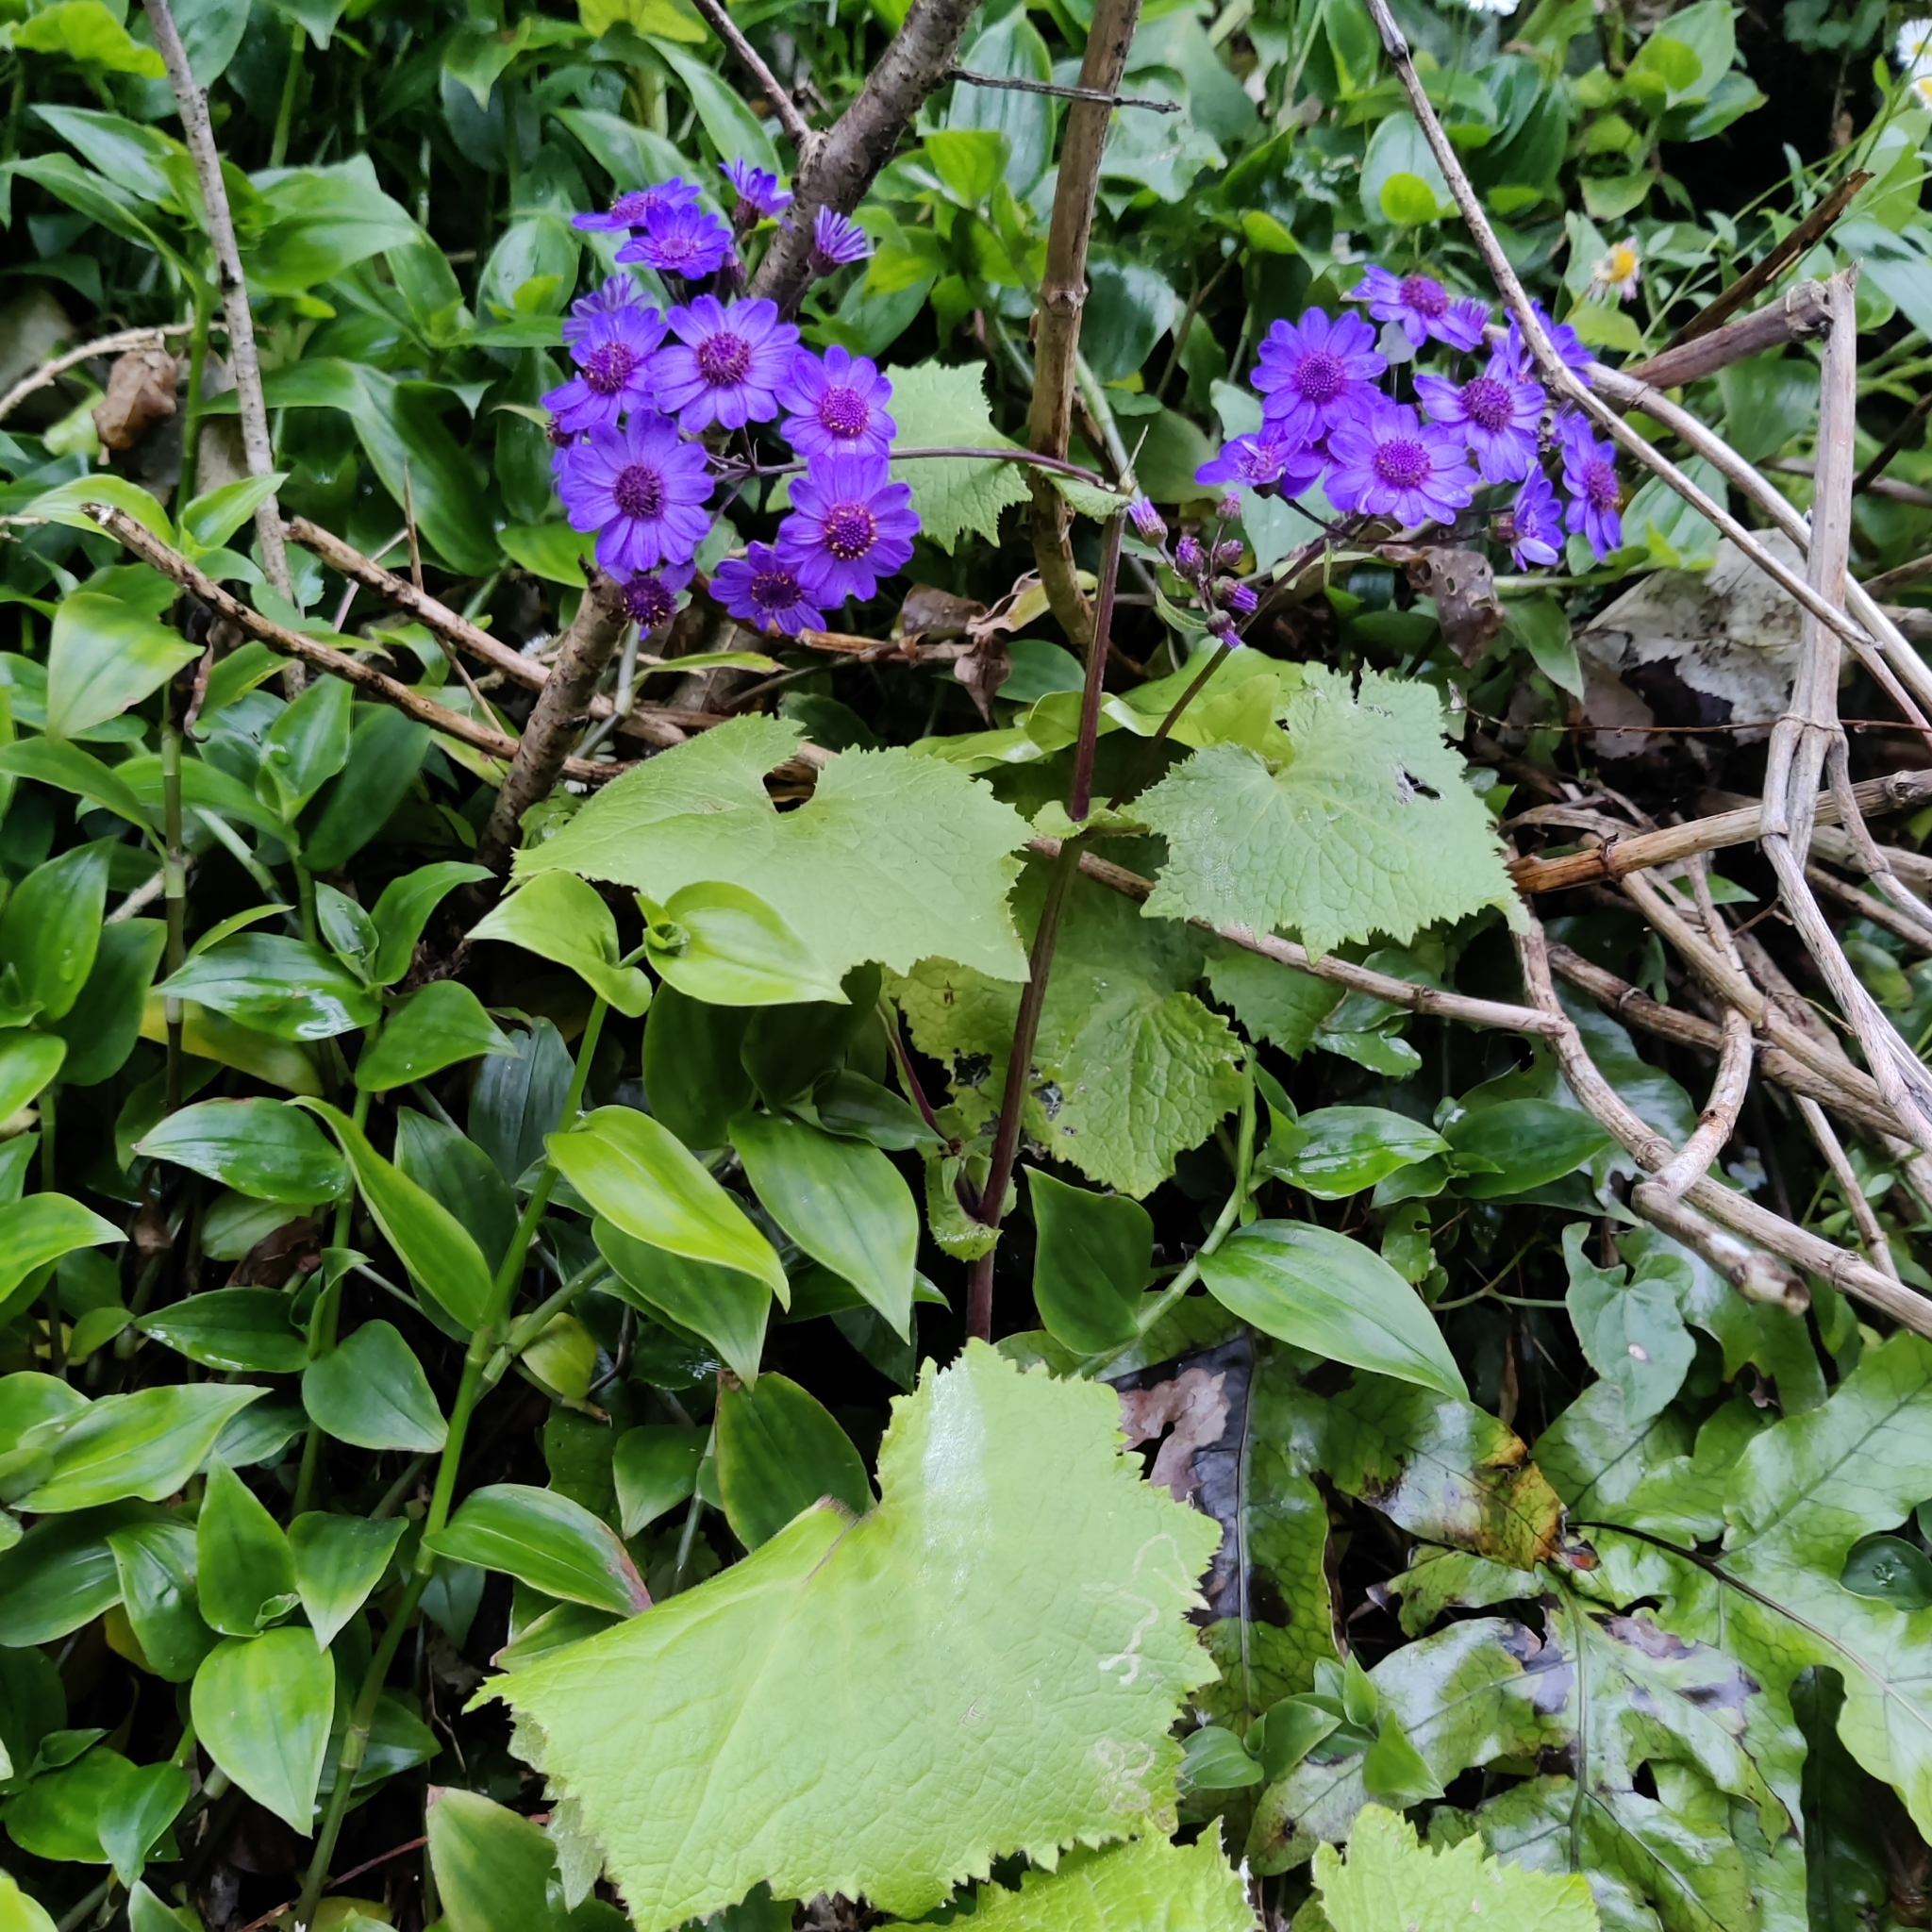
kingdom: Plantae
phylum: Tracheophyta
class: Magnoliopsida
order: Asterales
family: Asteraceae
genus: Pericallis
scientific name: Pericallis hybrida
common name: Cineraria
